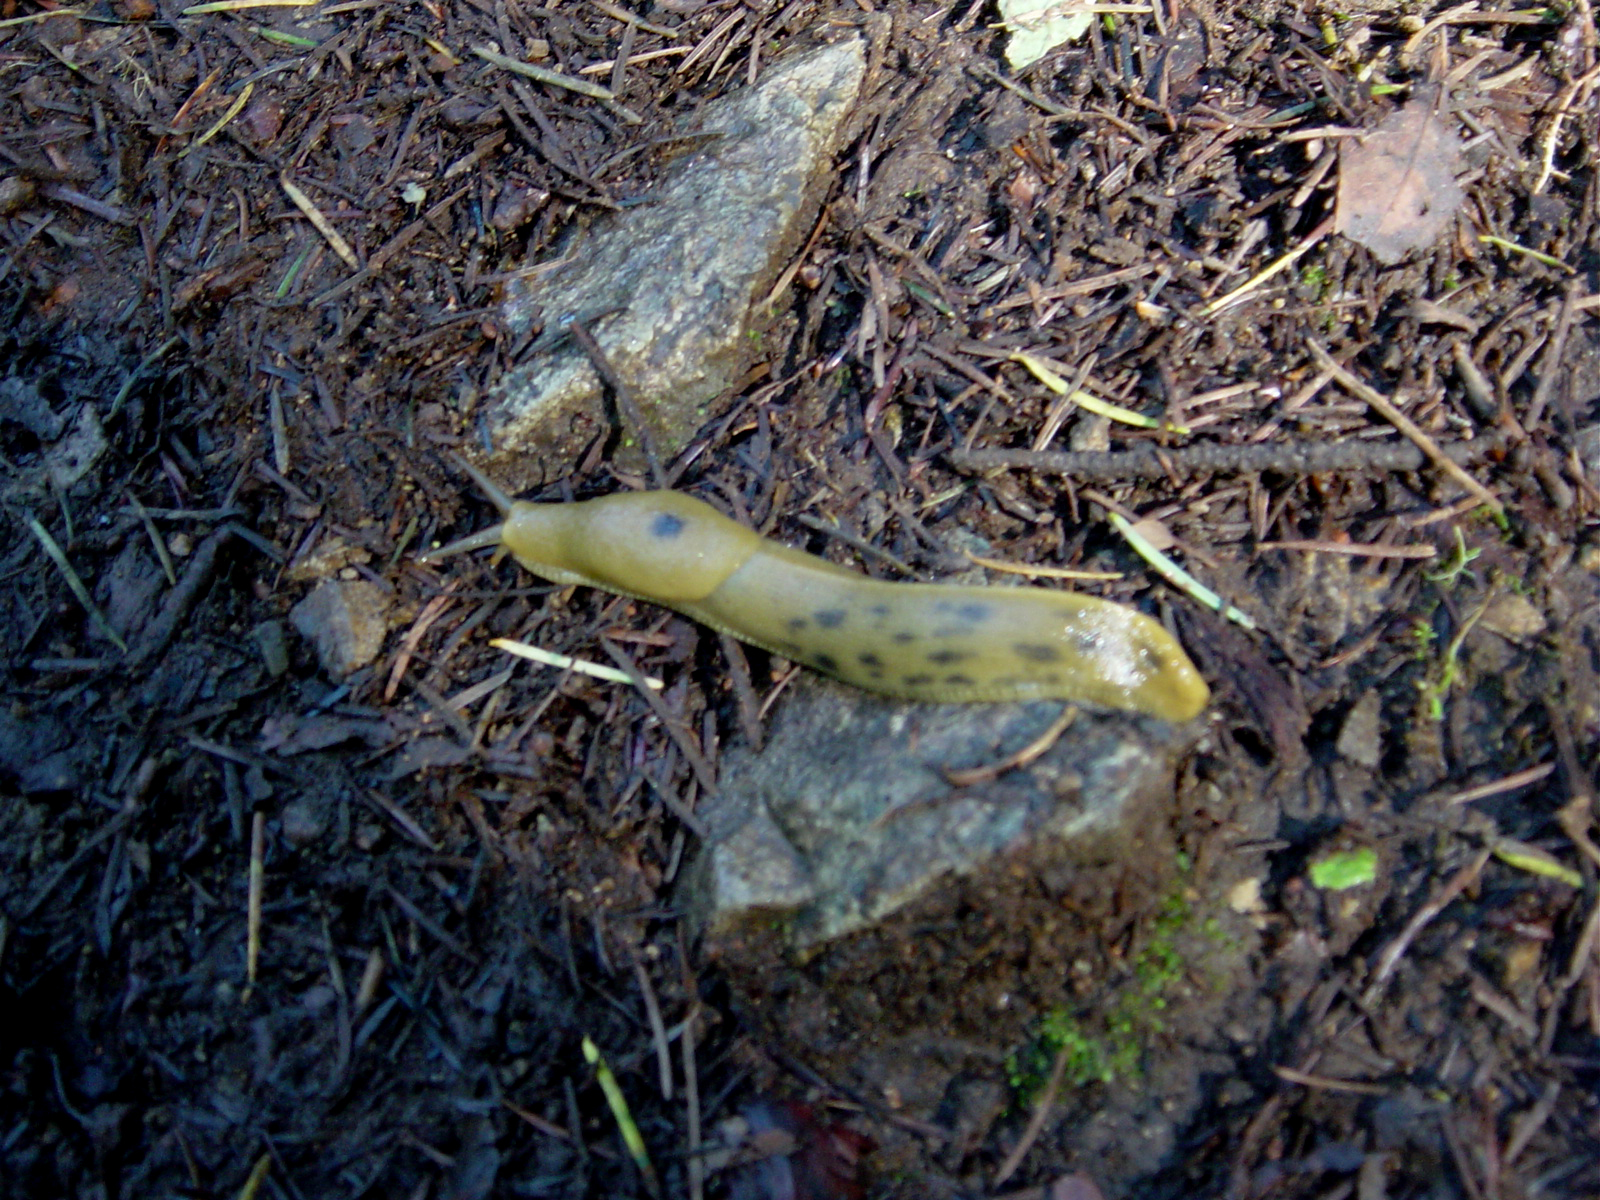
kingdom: Animalia
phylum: Mollusca
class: Gastropoda
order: Stylommatophora
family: Ariolimacidae
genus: Ariolimax
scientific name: Ariolimax buttoni
